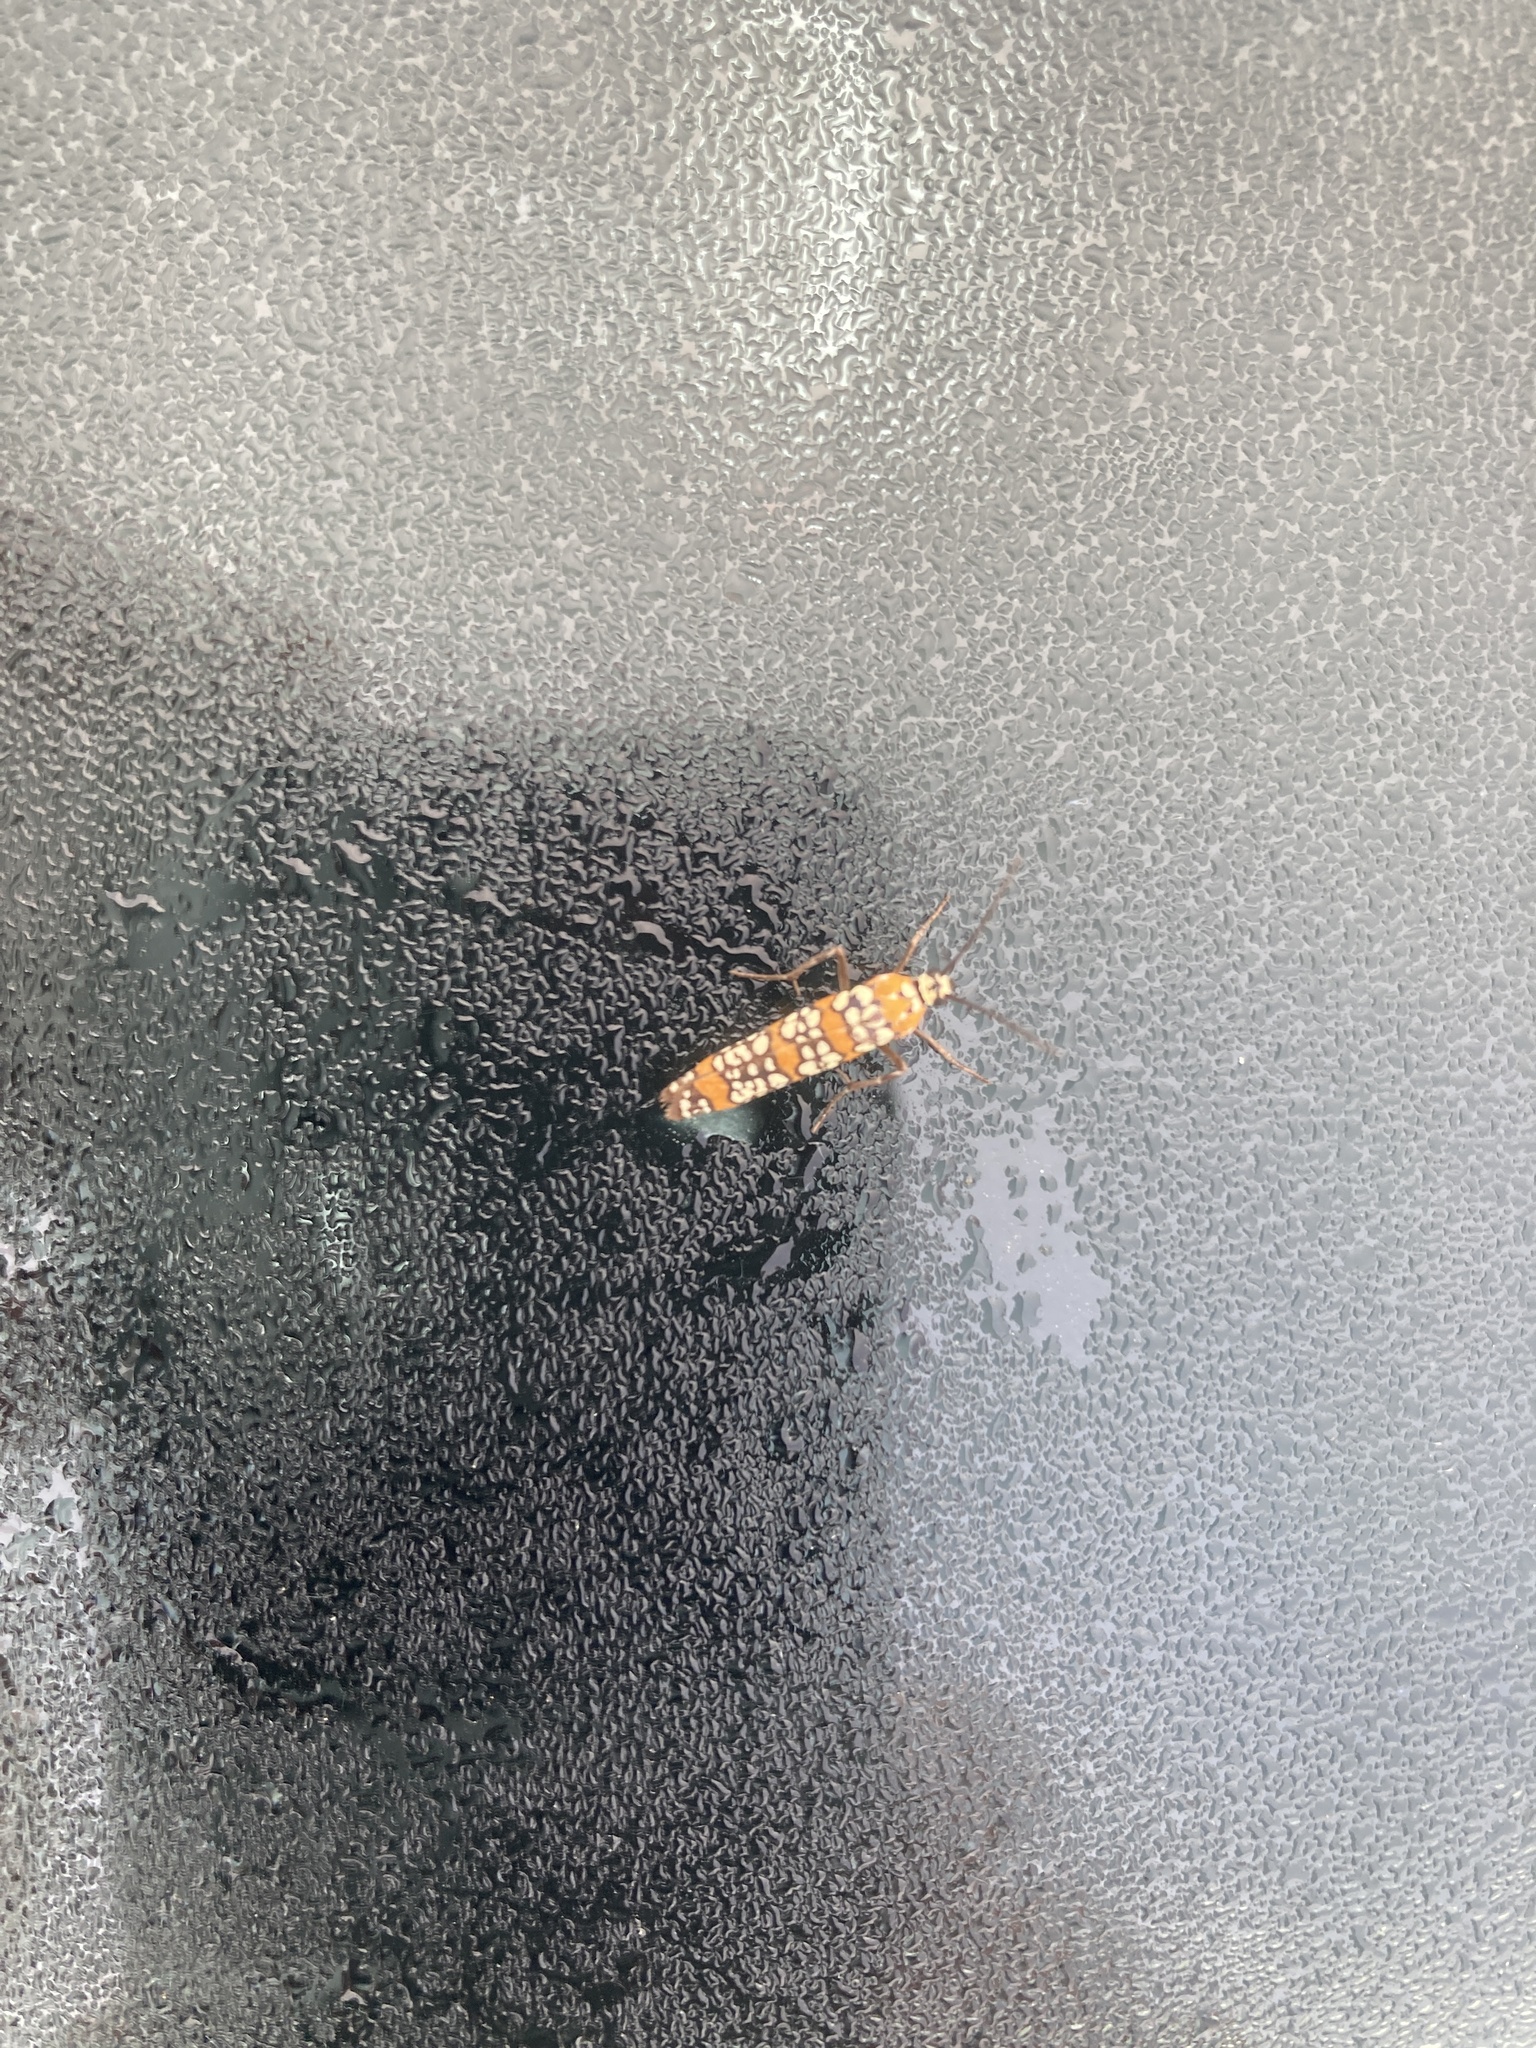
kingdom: Animalia
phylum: Arthropoda
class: Insecta
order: Lepidoptera
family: Attevidae
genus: Atteva
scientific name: Atteva punctella
